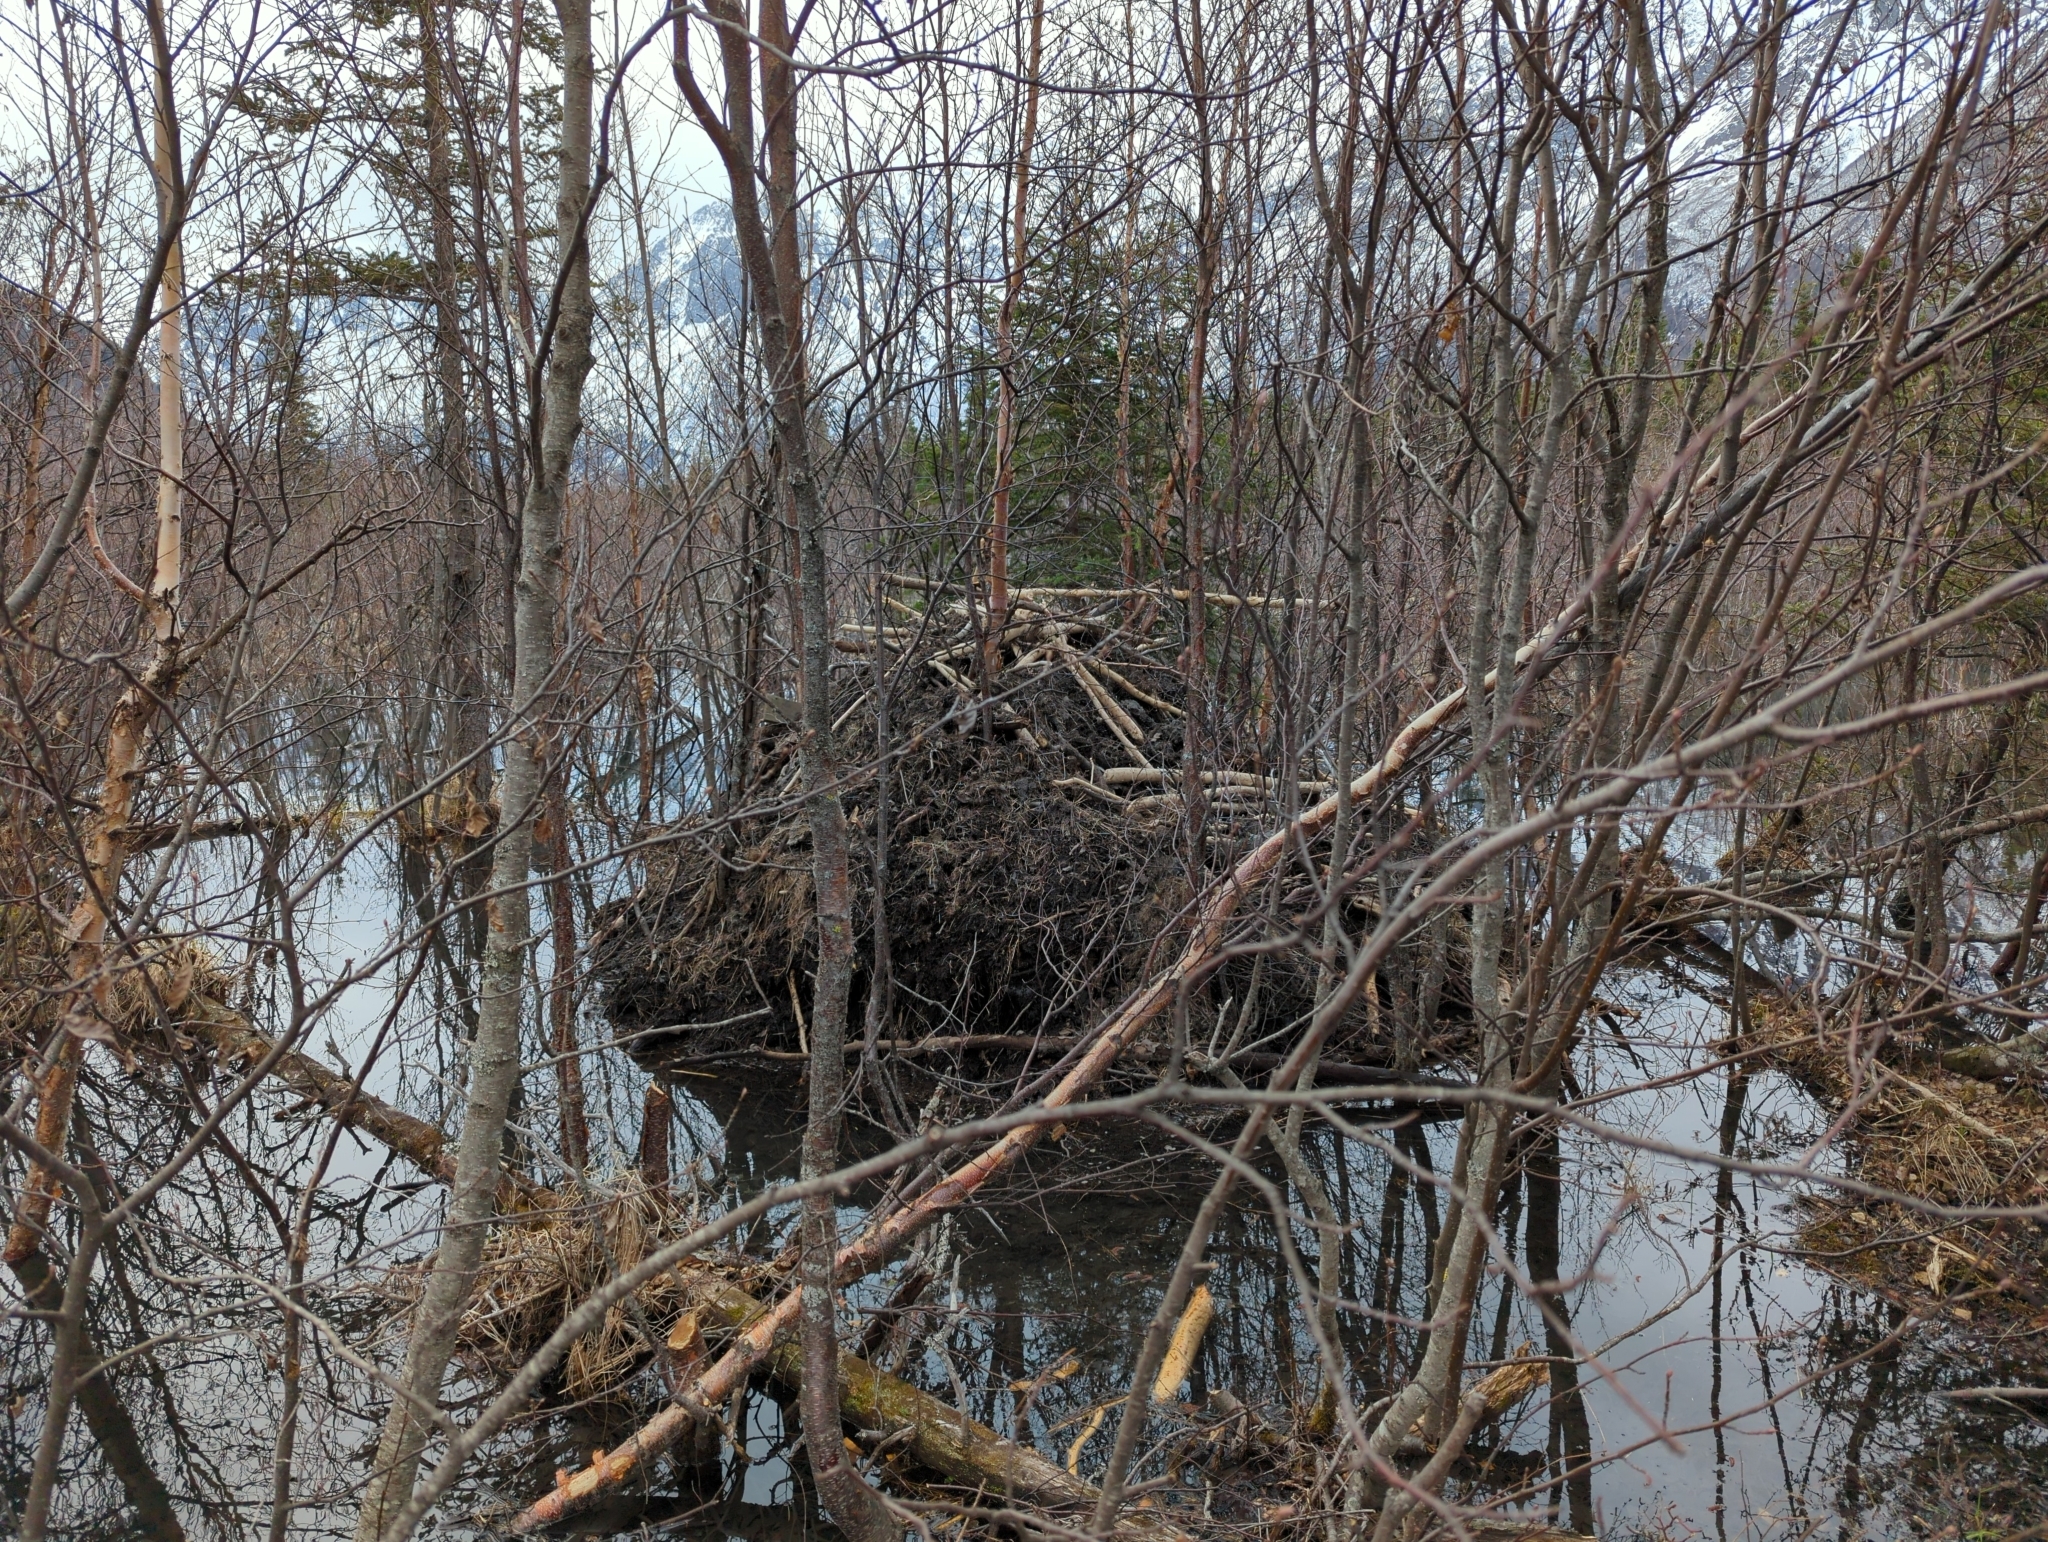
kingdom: Animalia
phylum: Chordata
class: Mammalia
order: Rodentia
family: Castoridae
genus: Castor
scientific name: Castor canadensis
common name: American beaver
